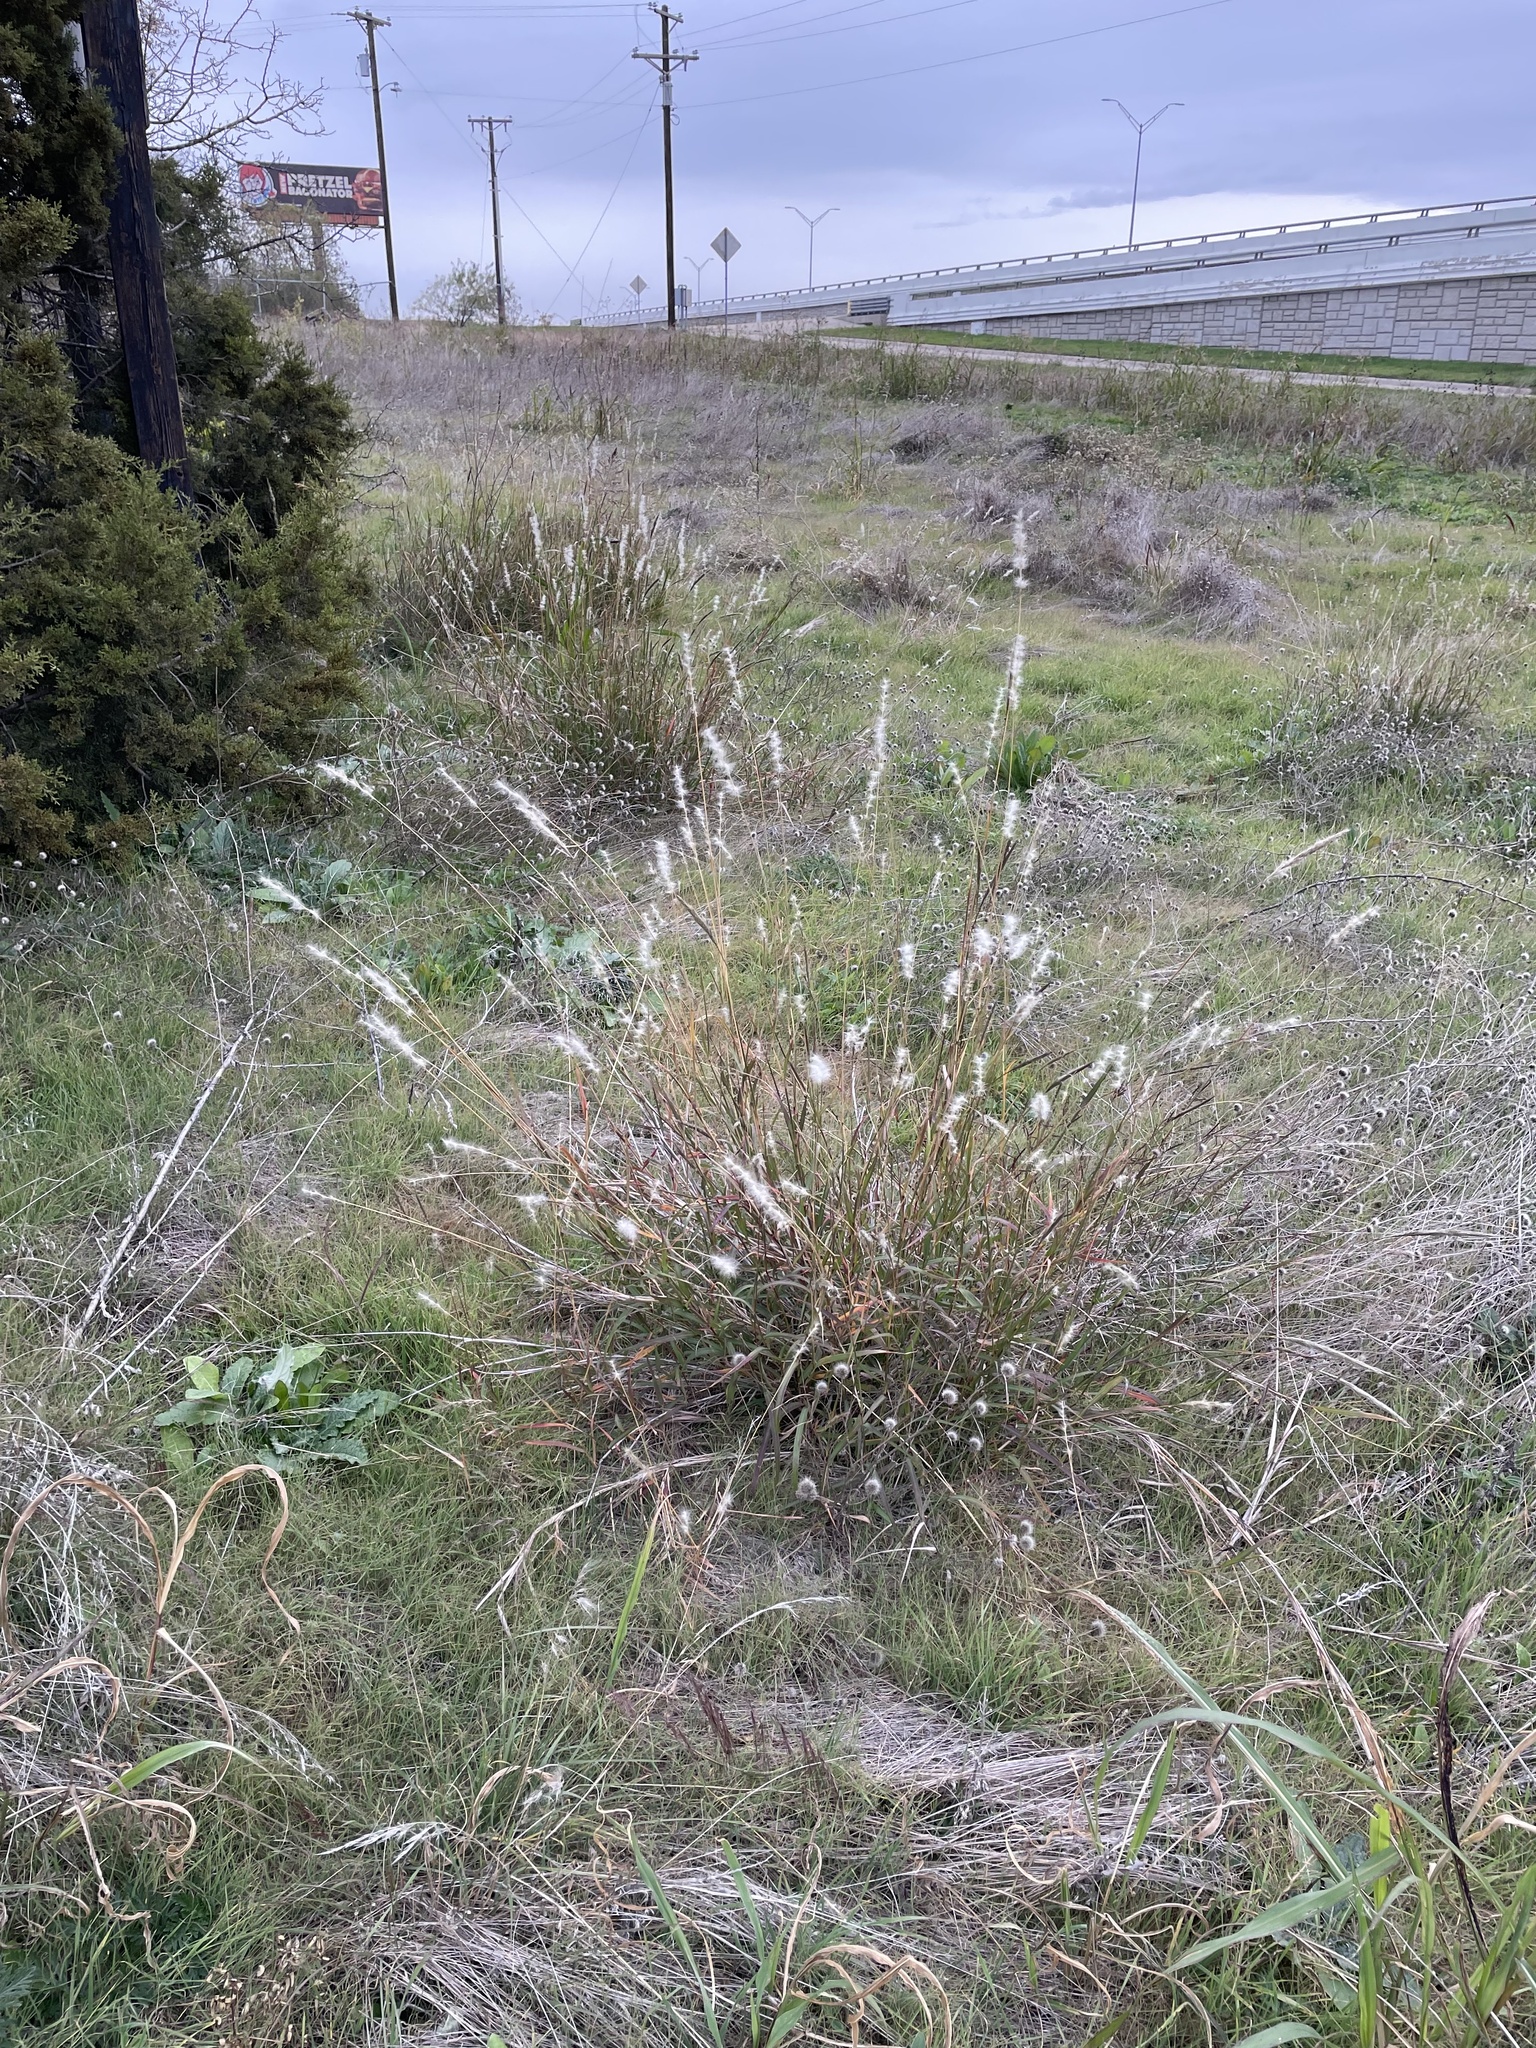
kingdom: Plantae
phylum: Tracheophyta
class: Liliopsida
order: Poales
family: Poaceae
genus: Bothriochloa
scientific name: Bothriochloa torreyana
